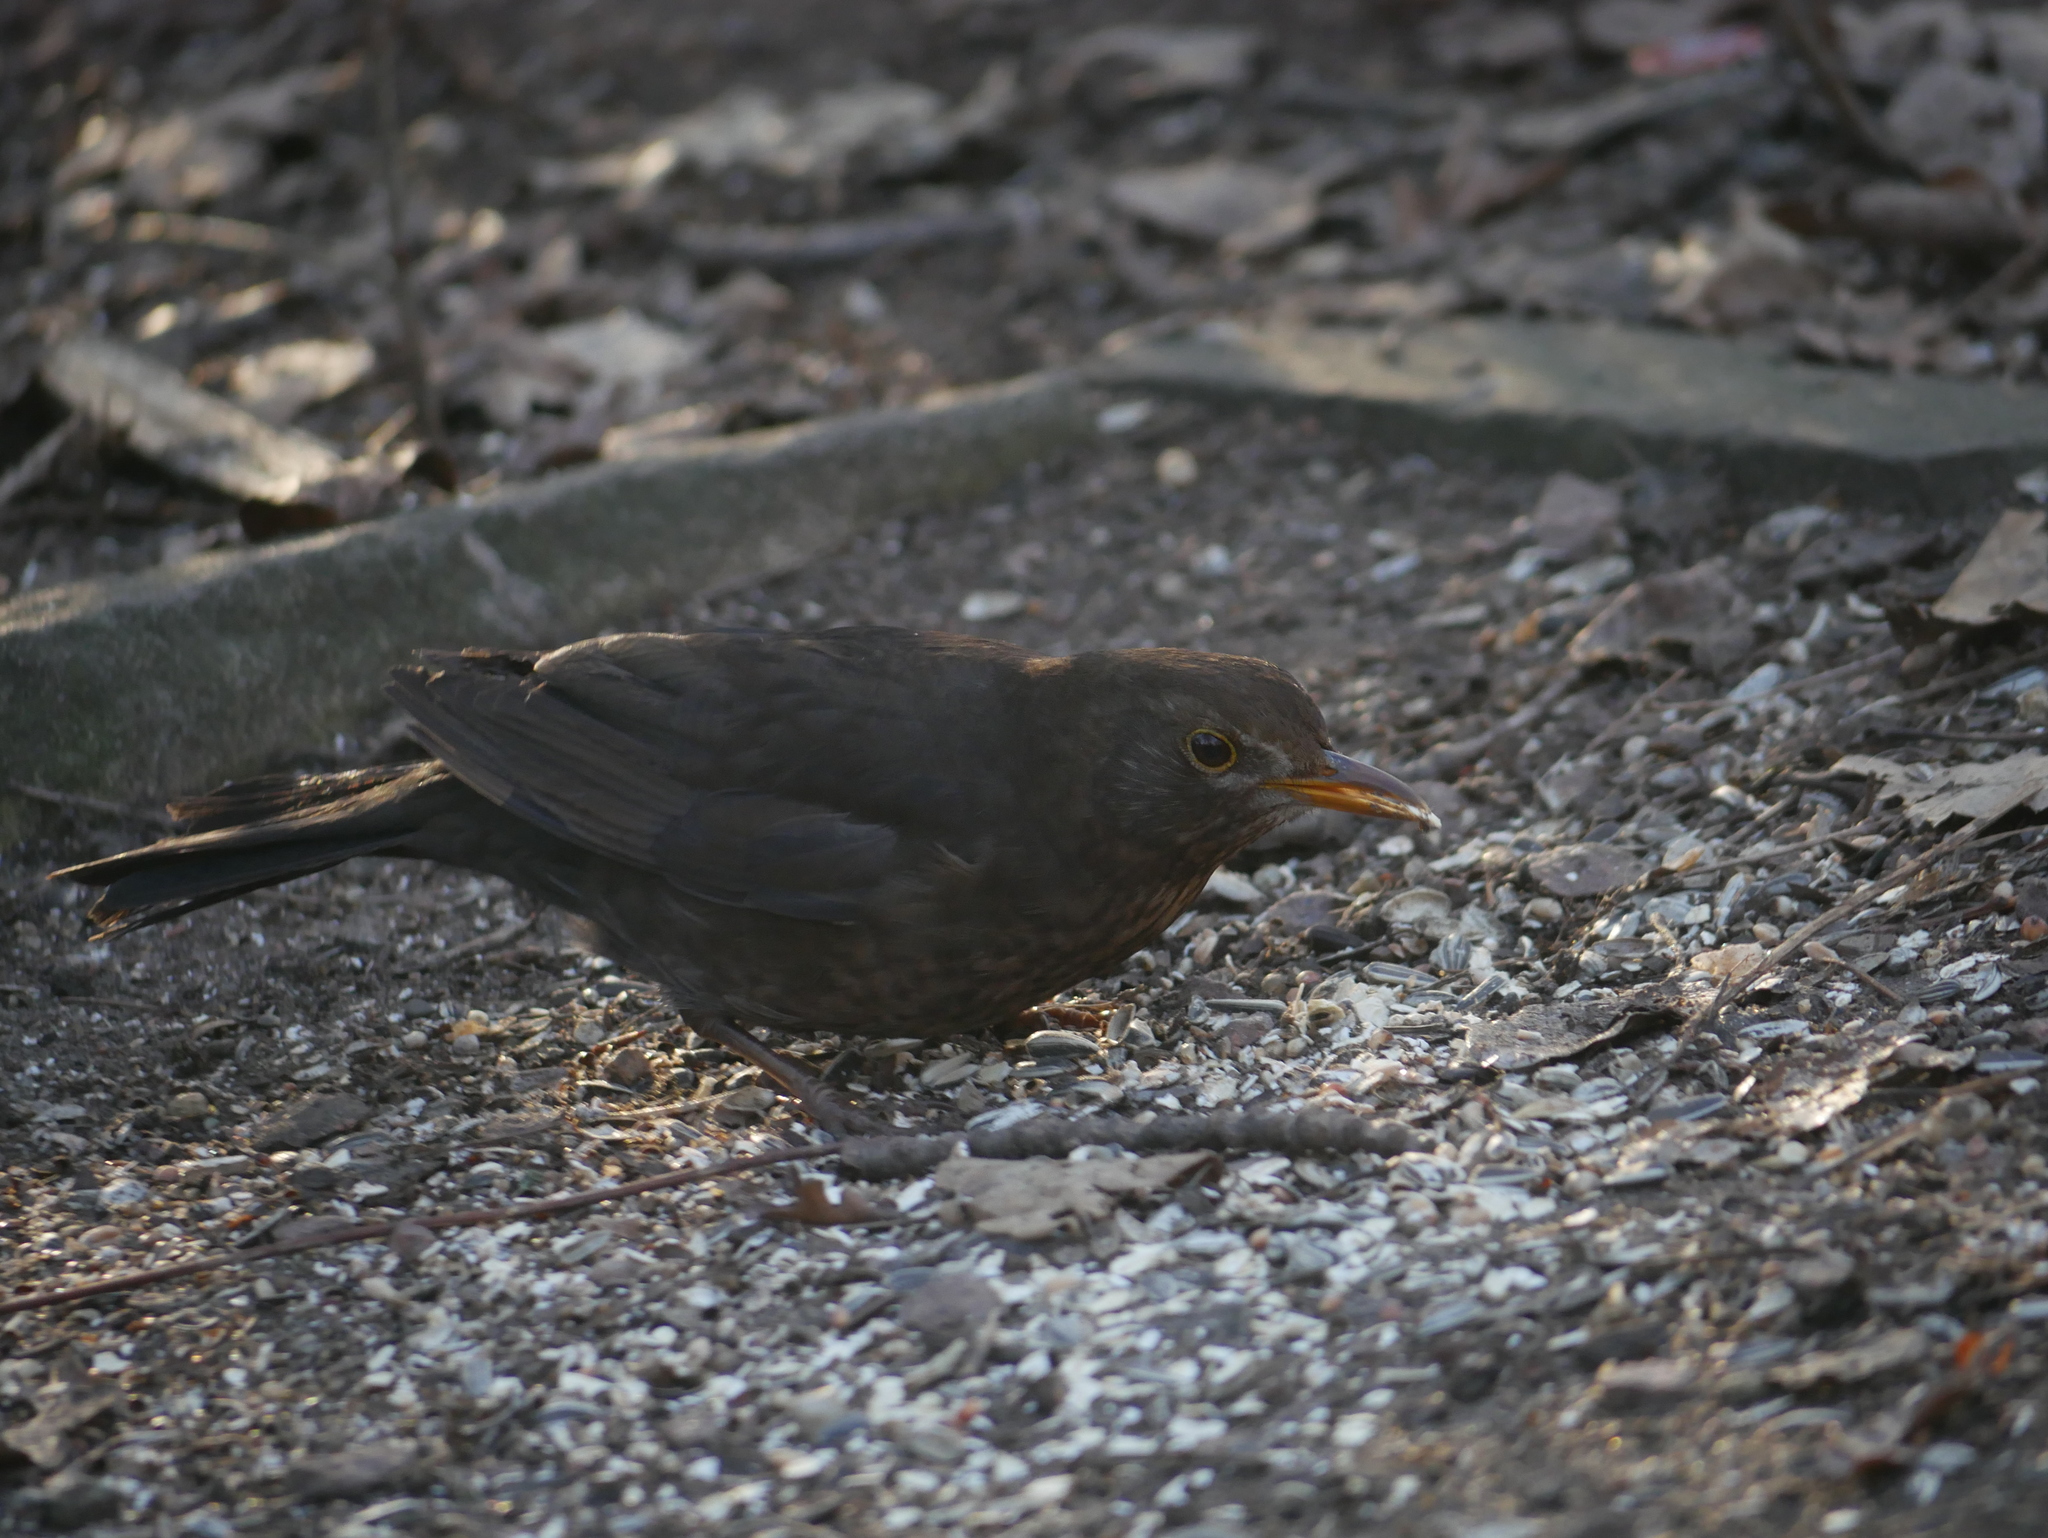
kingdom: Animalia
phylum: Chordata
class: Aves
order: Passeriformes
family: Turdidae
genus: Turdus
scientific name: Turdus merula
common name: Common blackbird
